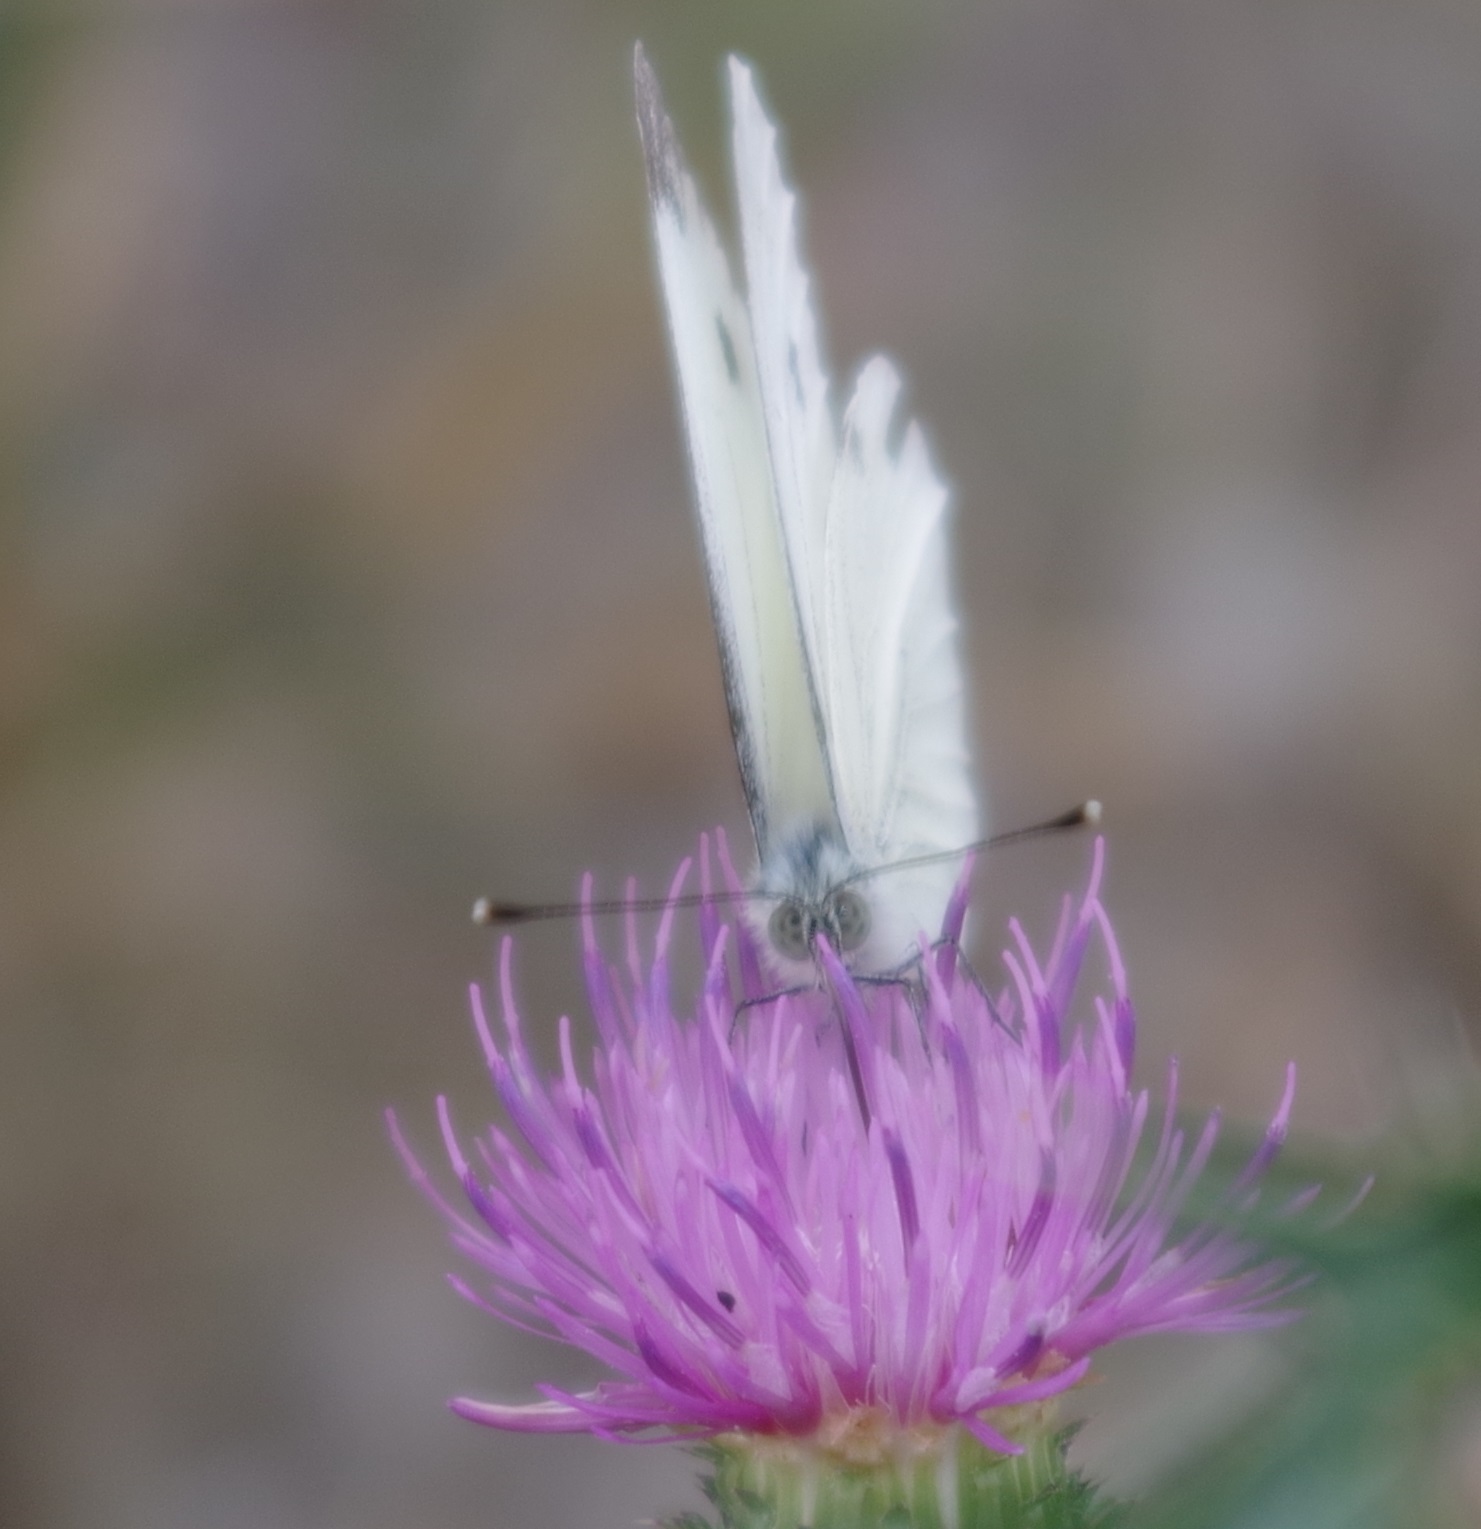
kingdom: Animalia
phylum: Arthropoda
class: Insecta
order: Lepidoptera
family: Pieridae
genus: Pieris
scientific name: Pieris napi
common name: Green-veined white
